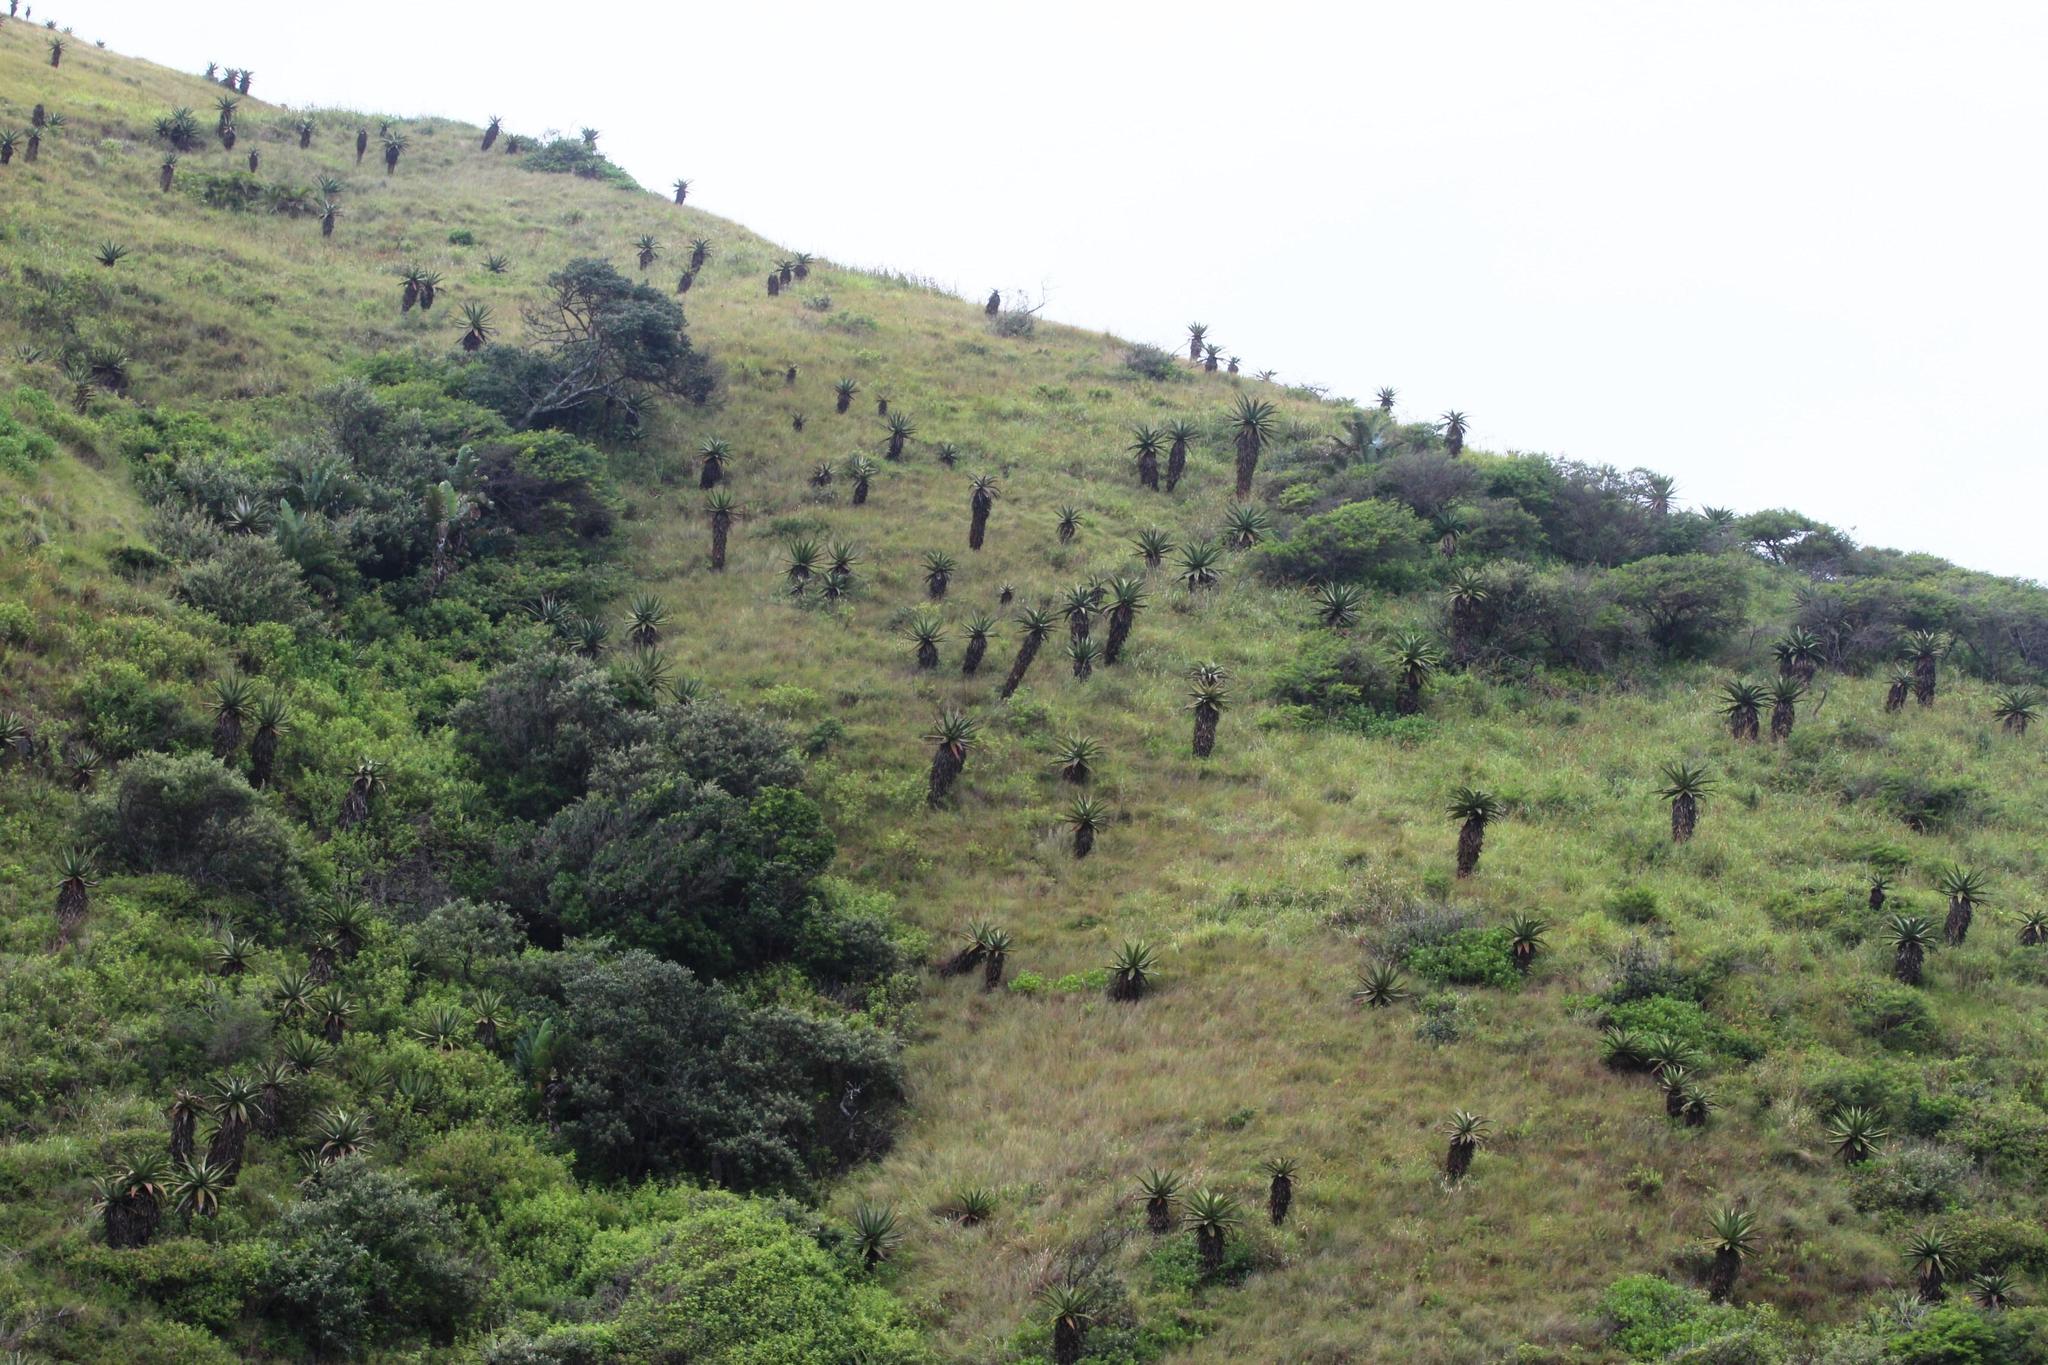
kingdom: Plantae
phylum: Tracheophyta
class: Liliopsida
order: Asparagales
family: Asphodelaceae
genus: Aloe
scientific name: Aloe ferox
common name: Bitter aloe
